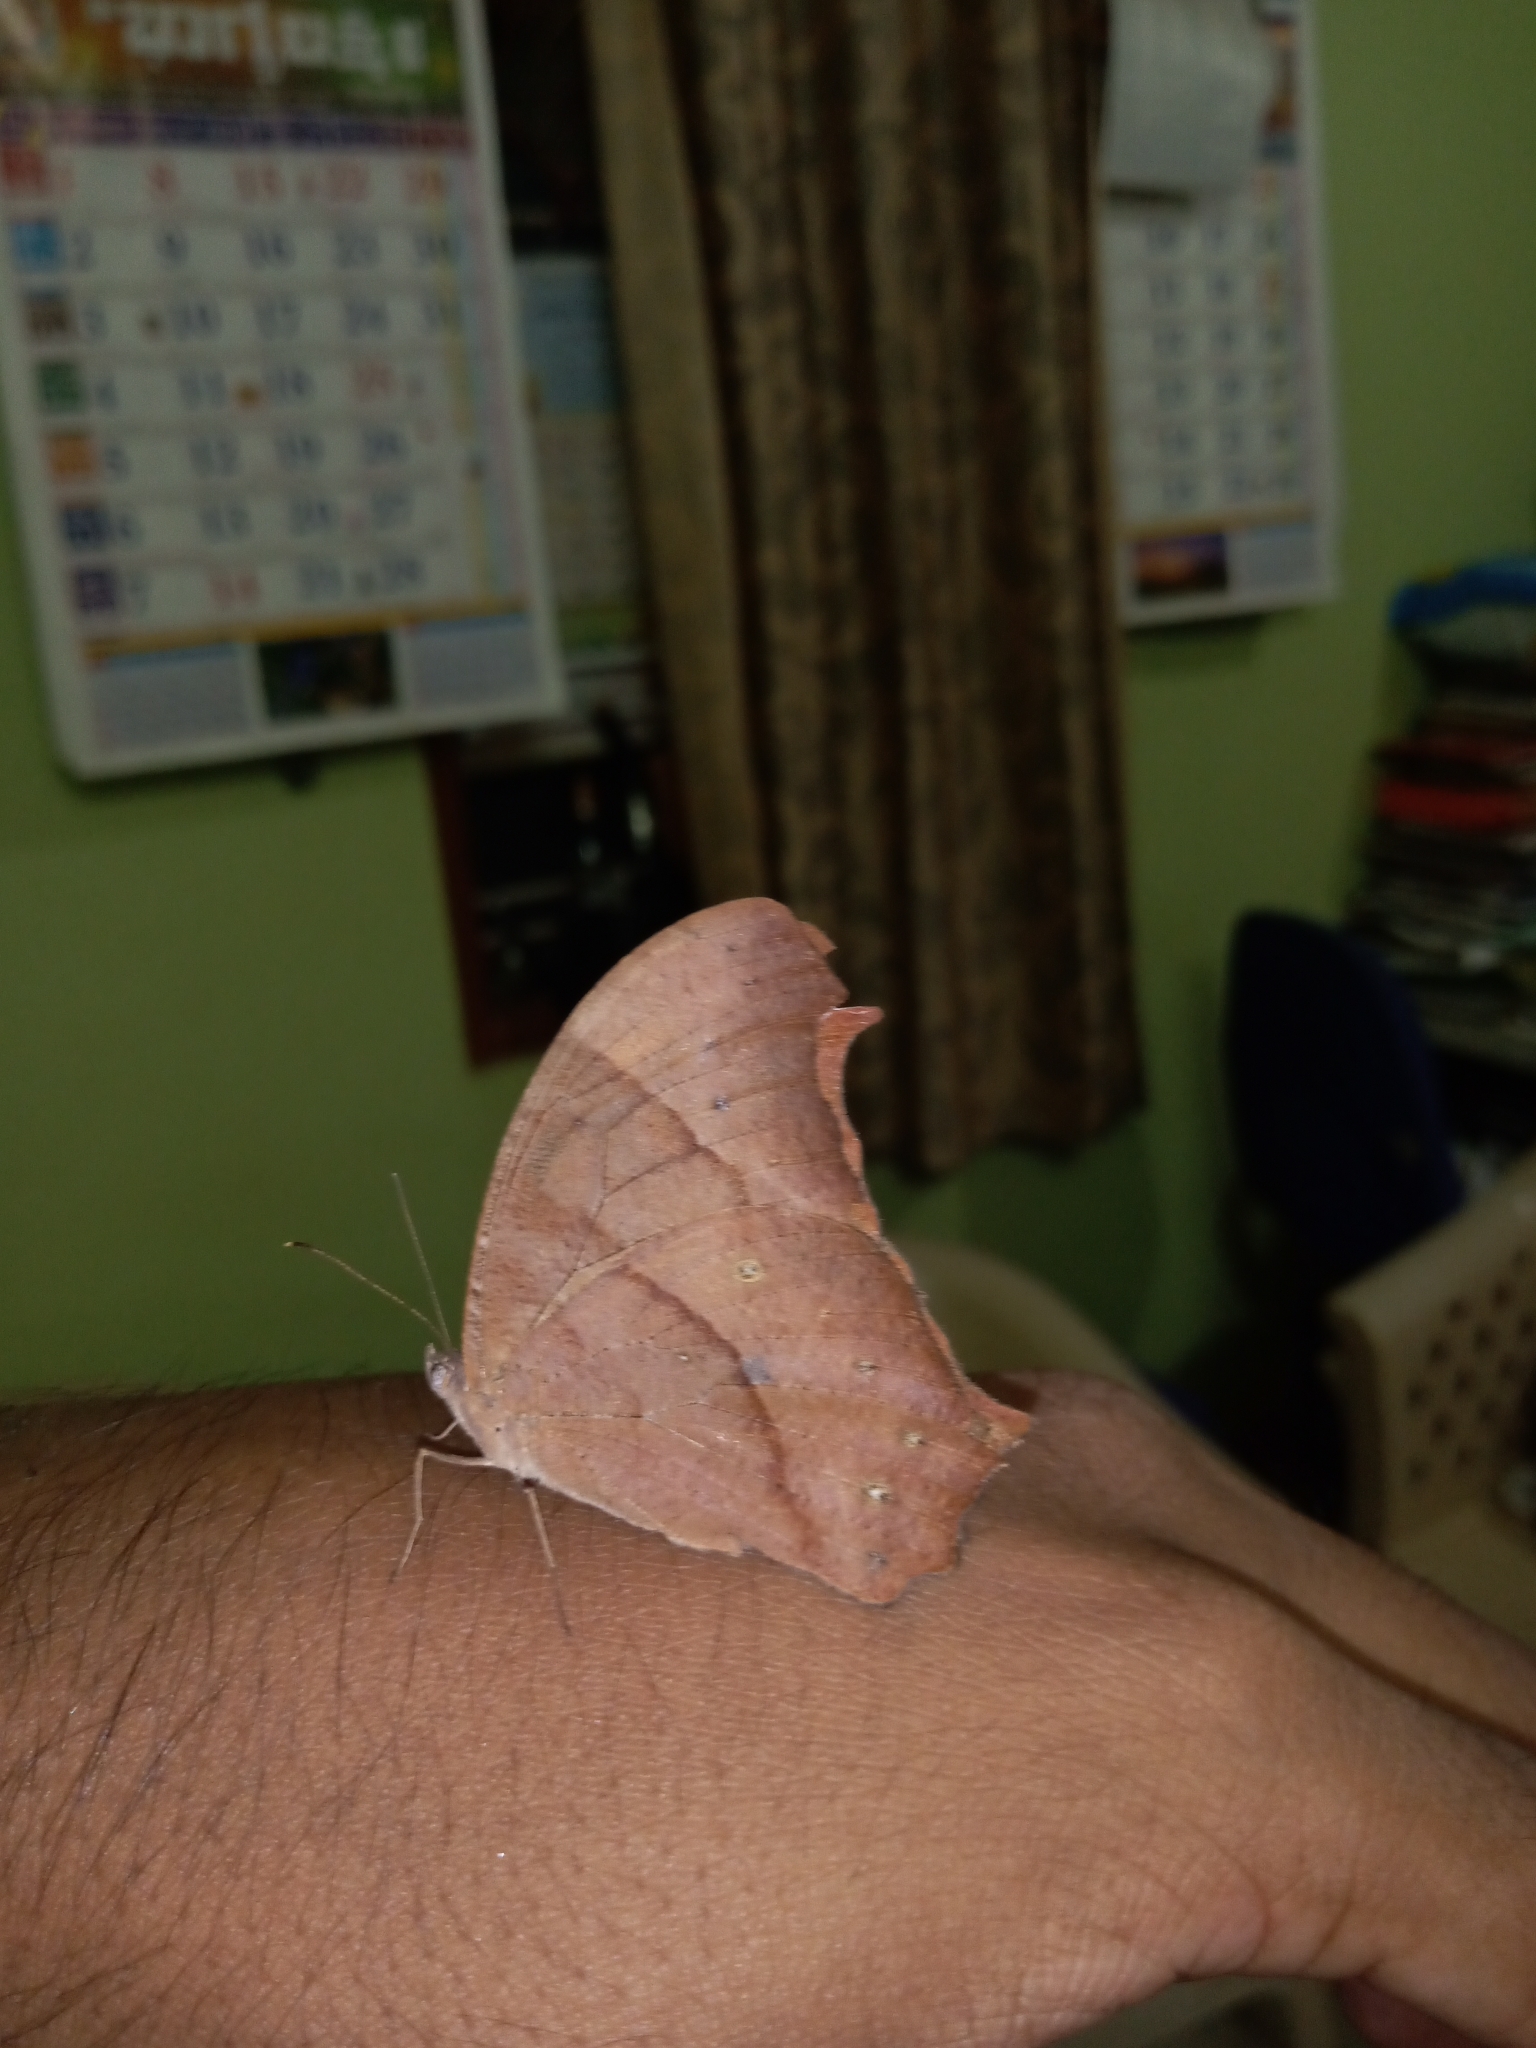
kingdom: Animalia
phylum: Arthropoda
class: Insecta
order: Lepidoptera
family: Nymphalidae
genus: Melanitis
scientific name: Melanitis leda
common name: Twilight brown
